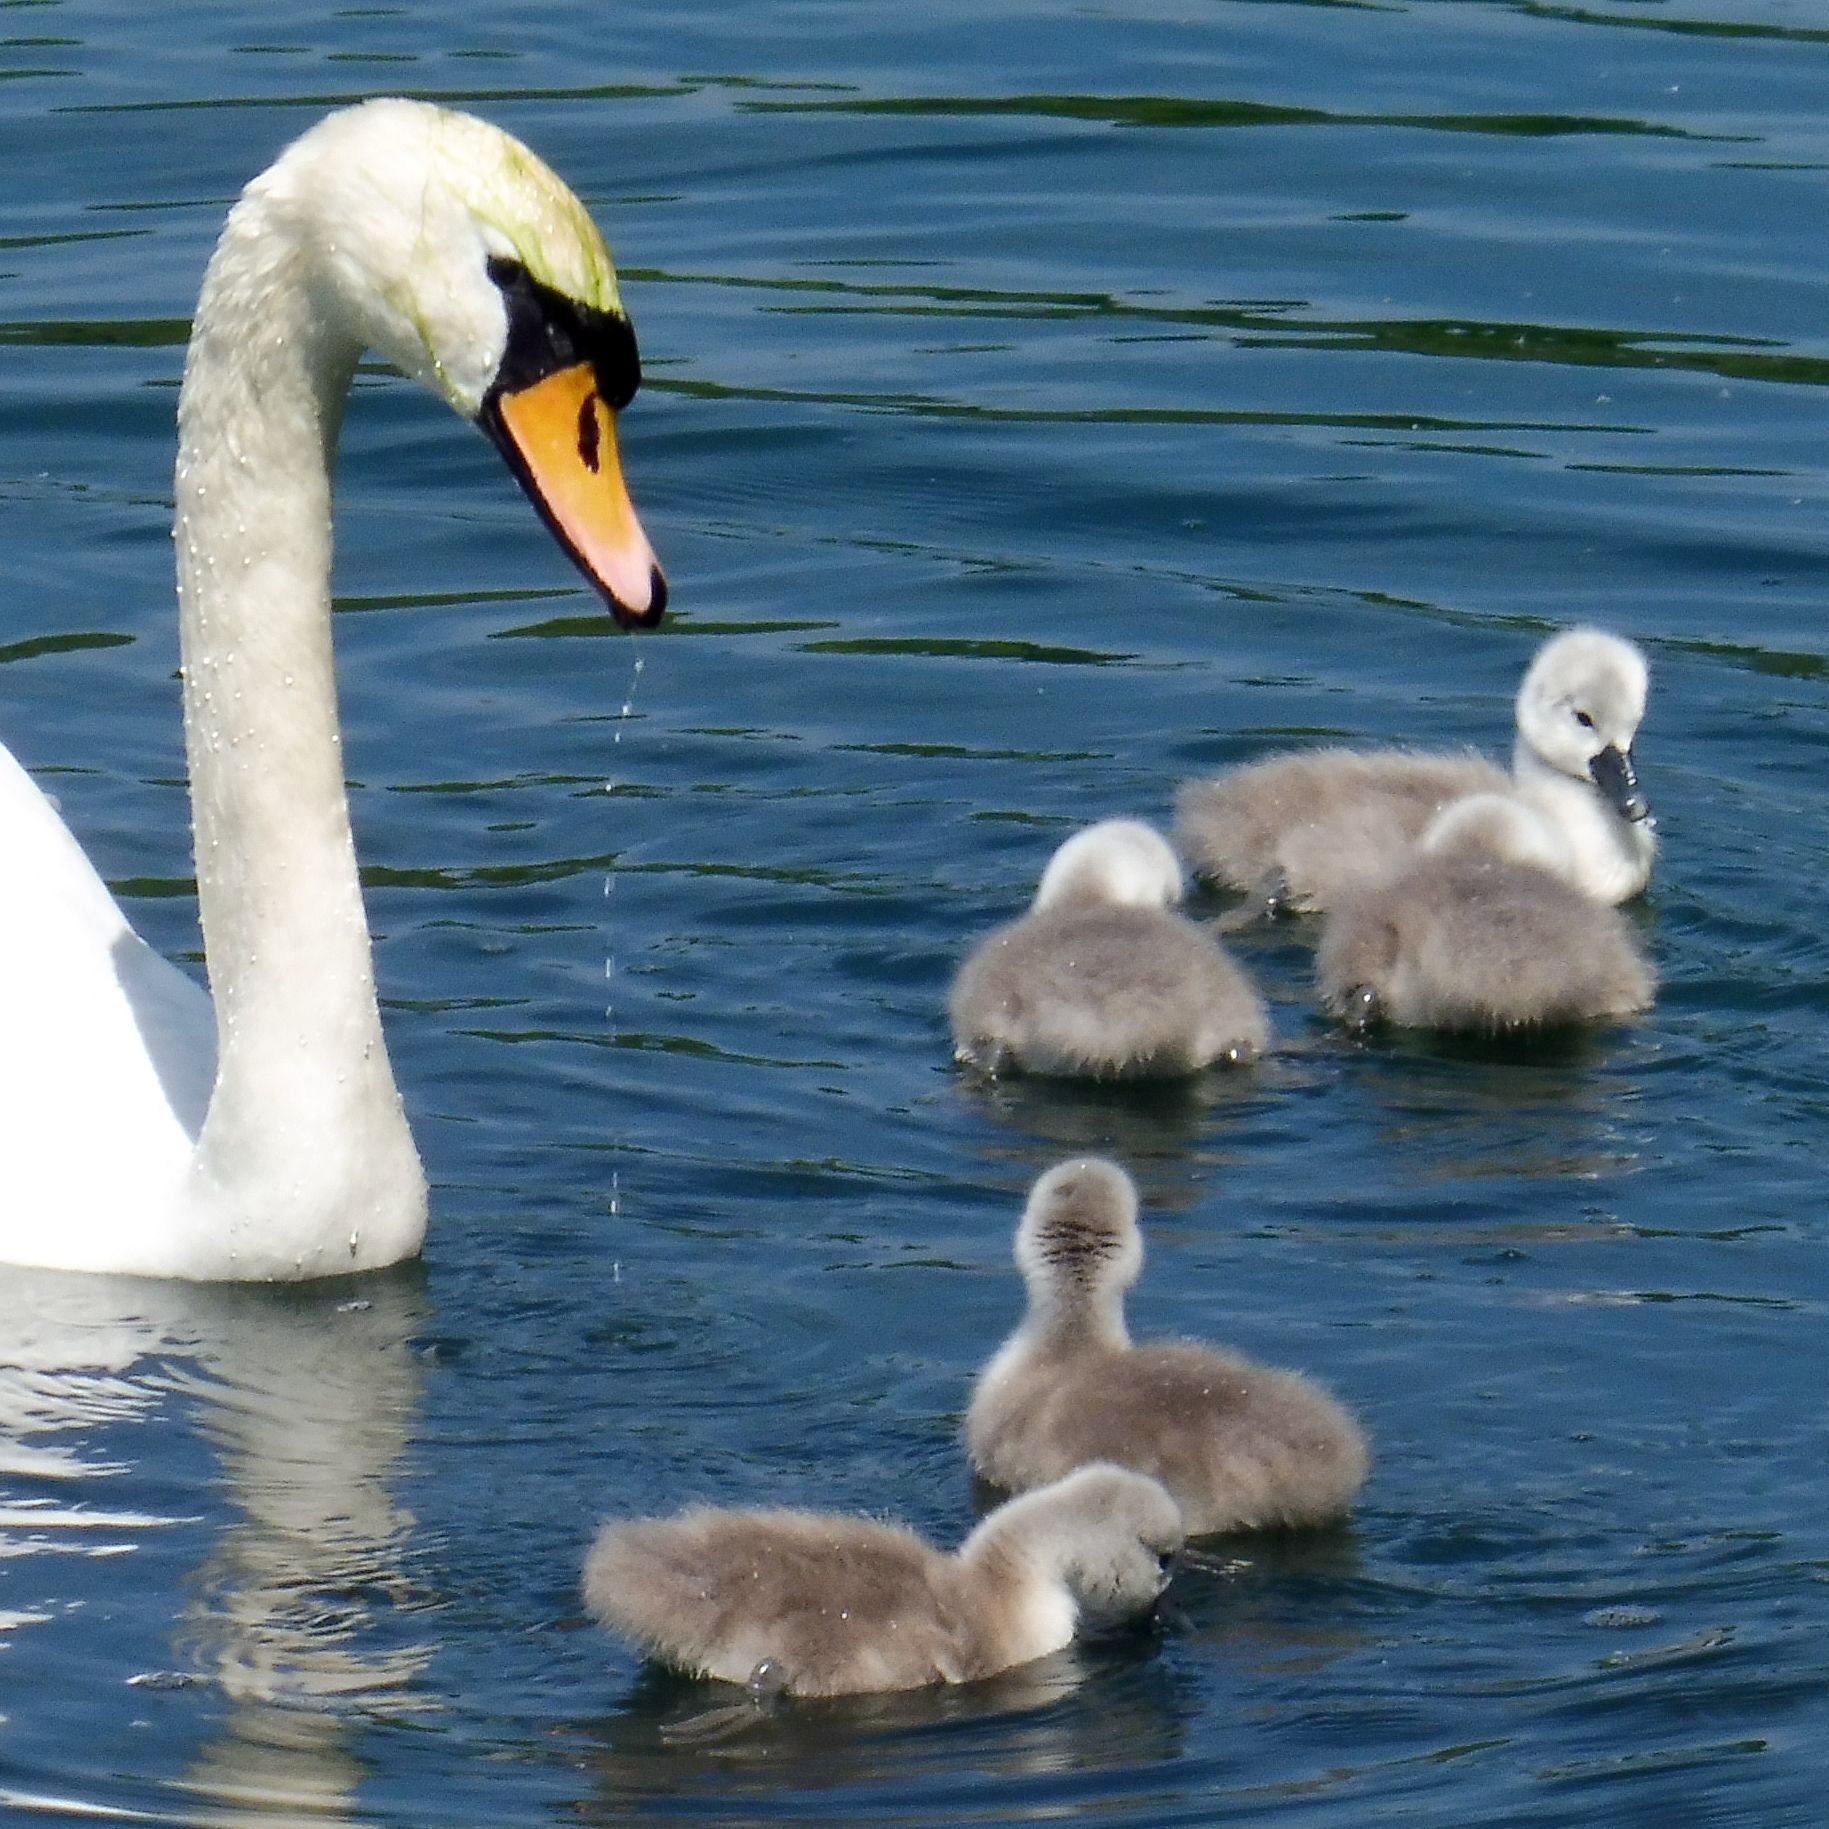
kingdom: Animalia
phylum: Chordata
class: Aves
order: Anseriformes
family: Anatidae
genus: Cygnus
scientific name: Cygnus olor
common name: Mute swan
